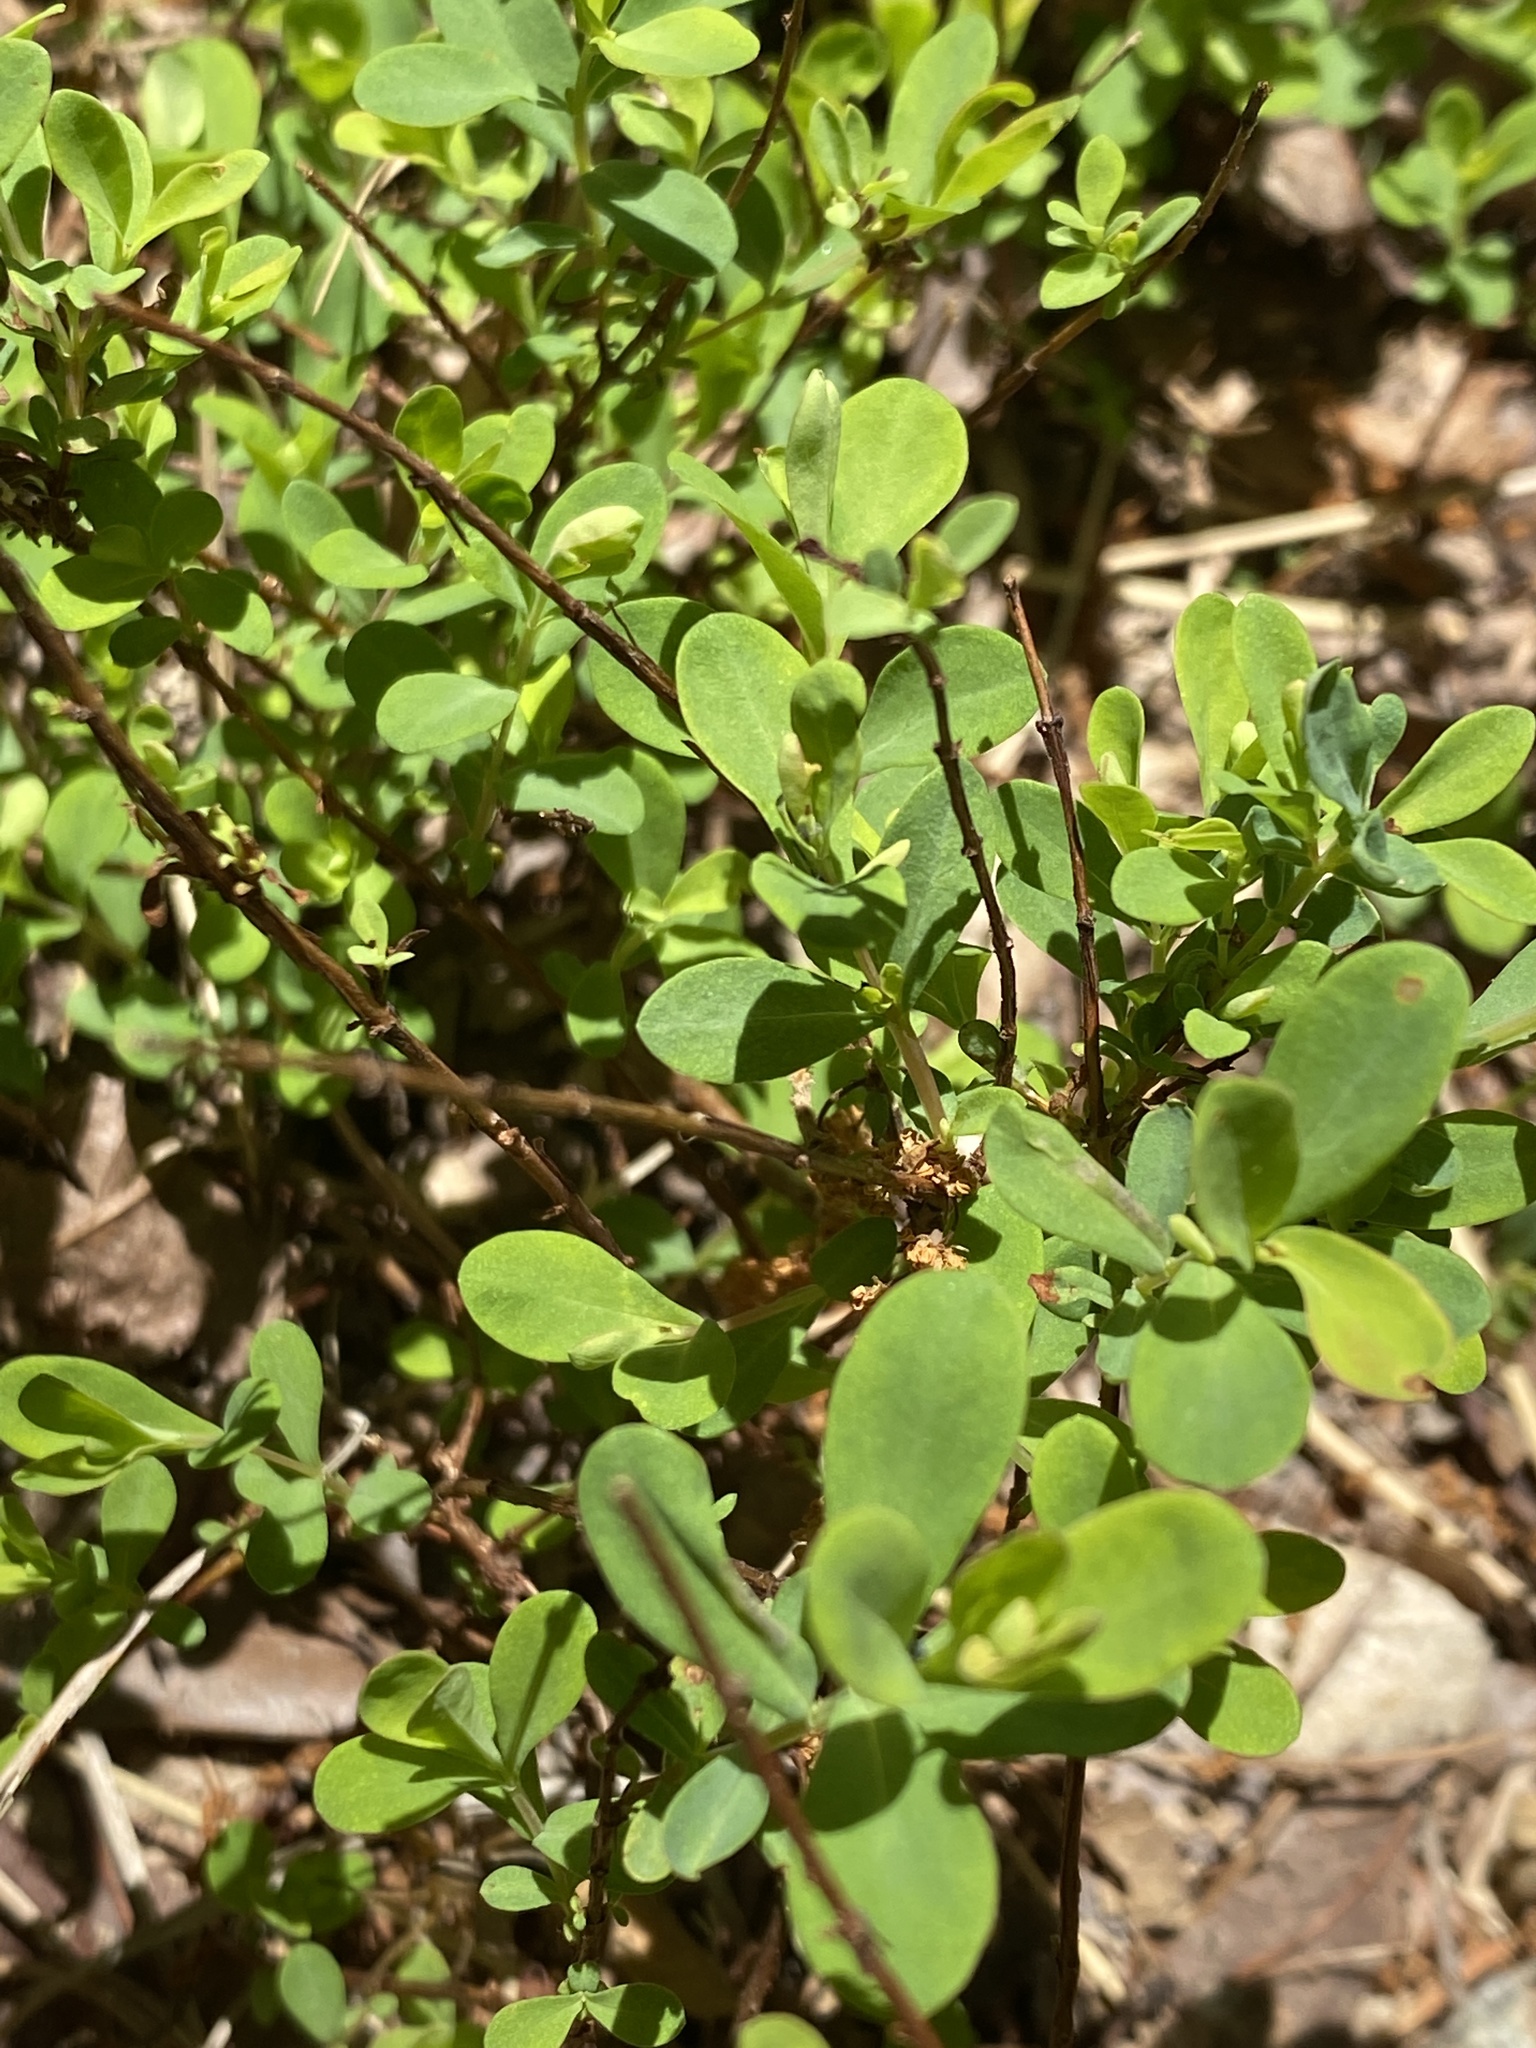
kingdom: Plantae
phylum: Tracheophyta
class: Magnoliopsida
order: Malpighiales
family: Hypericaceae
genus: Hypericum
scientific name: Hypericum hypericoides
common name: St. andrew's cross
